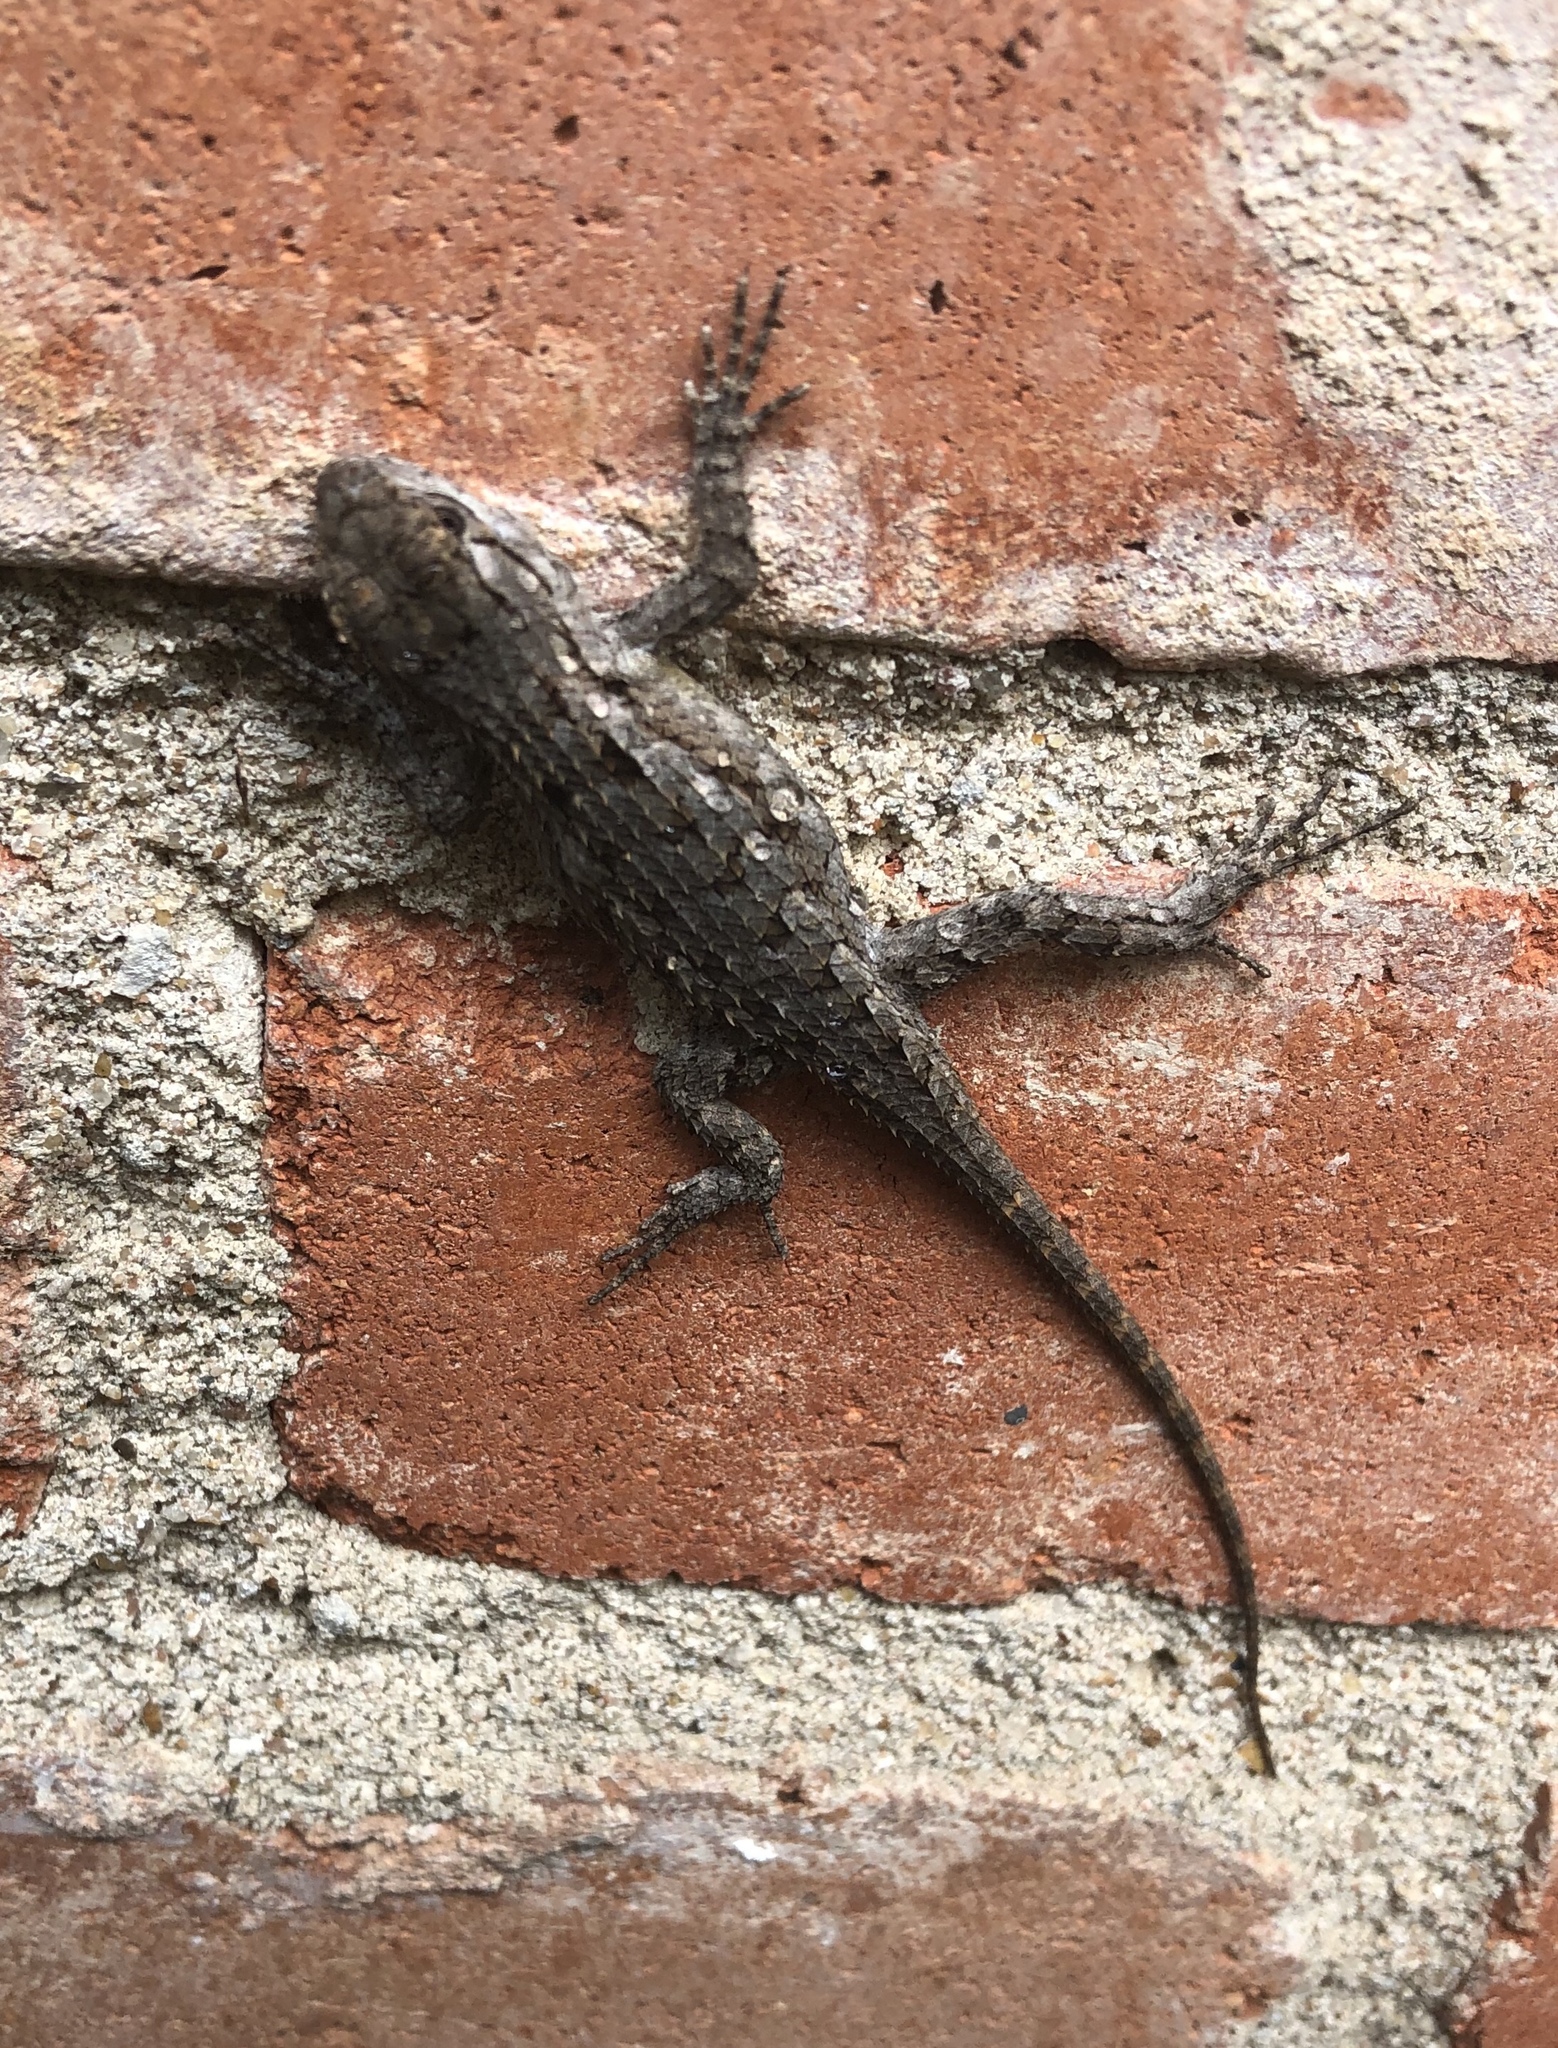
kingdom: Animalia
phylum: Chordata
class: Squamata
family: Phrynosomatidae
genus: Sceloporus
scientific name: Sceloporus olivaceus
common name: Texas spiny lizard
